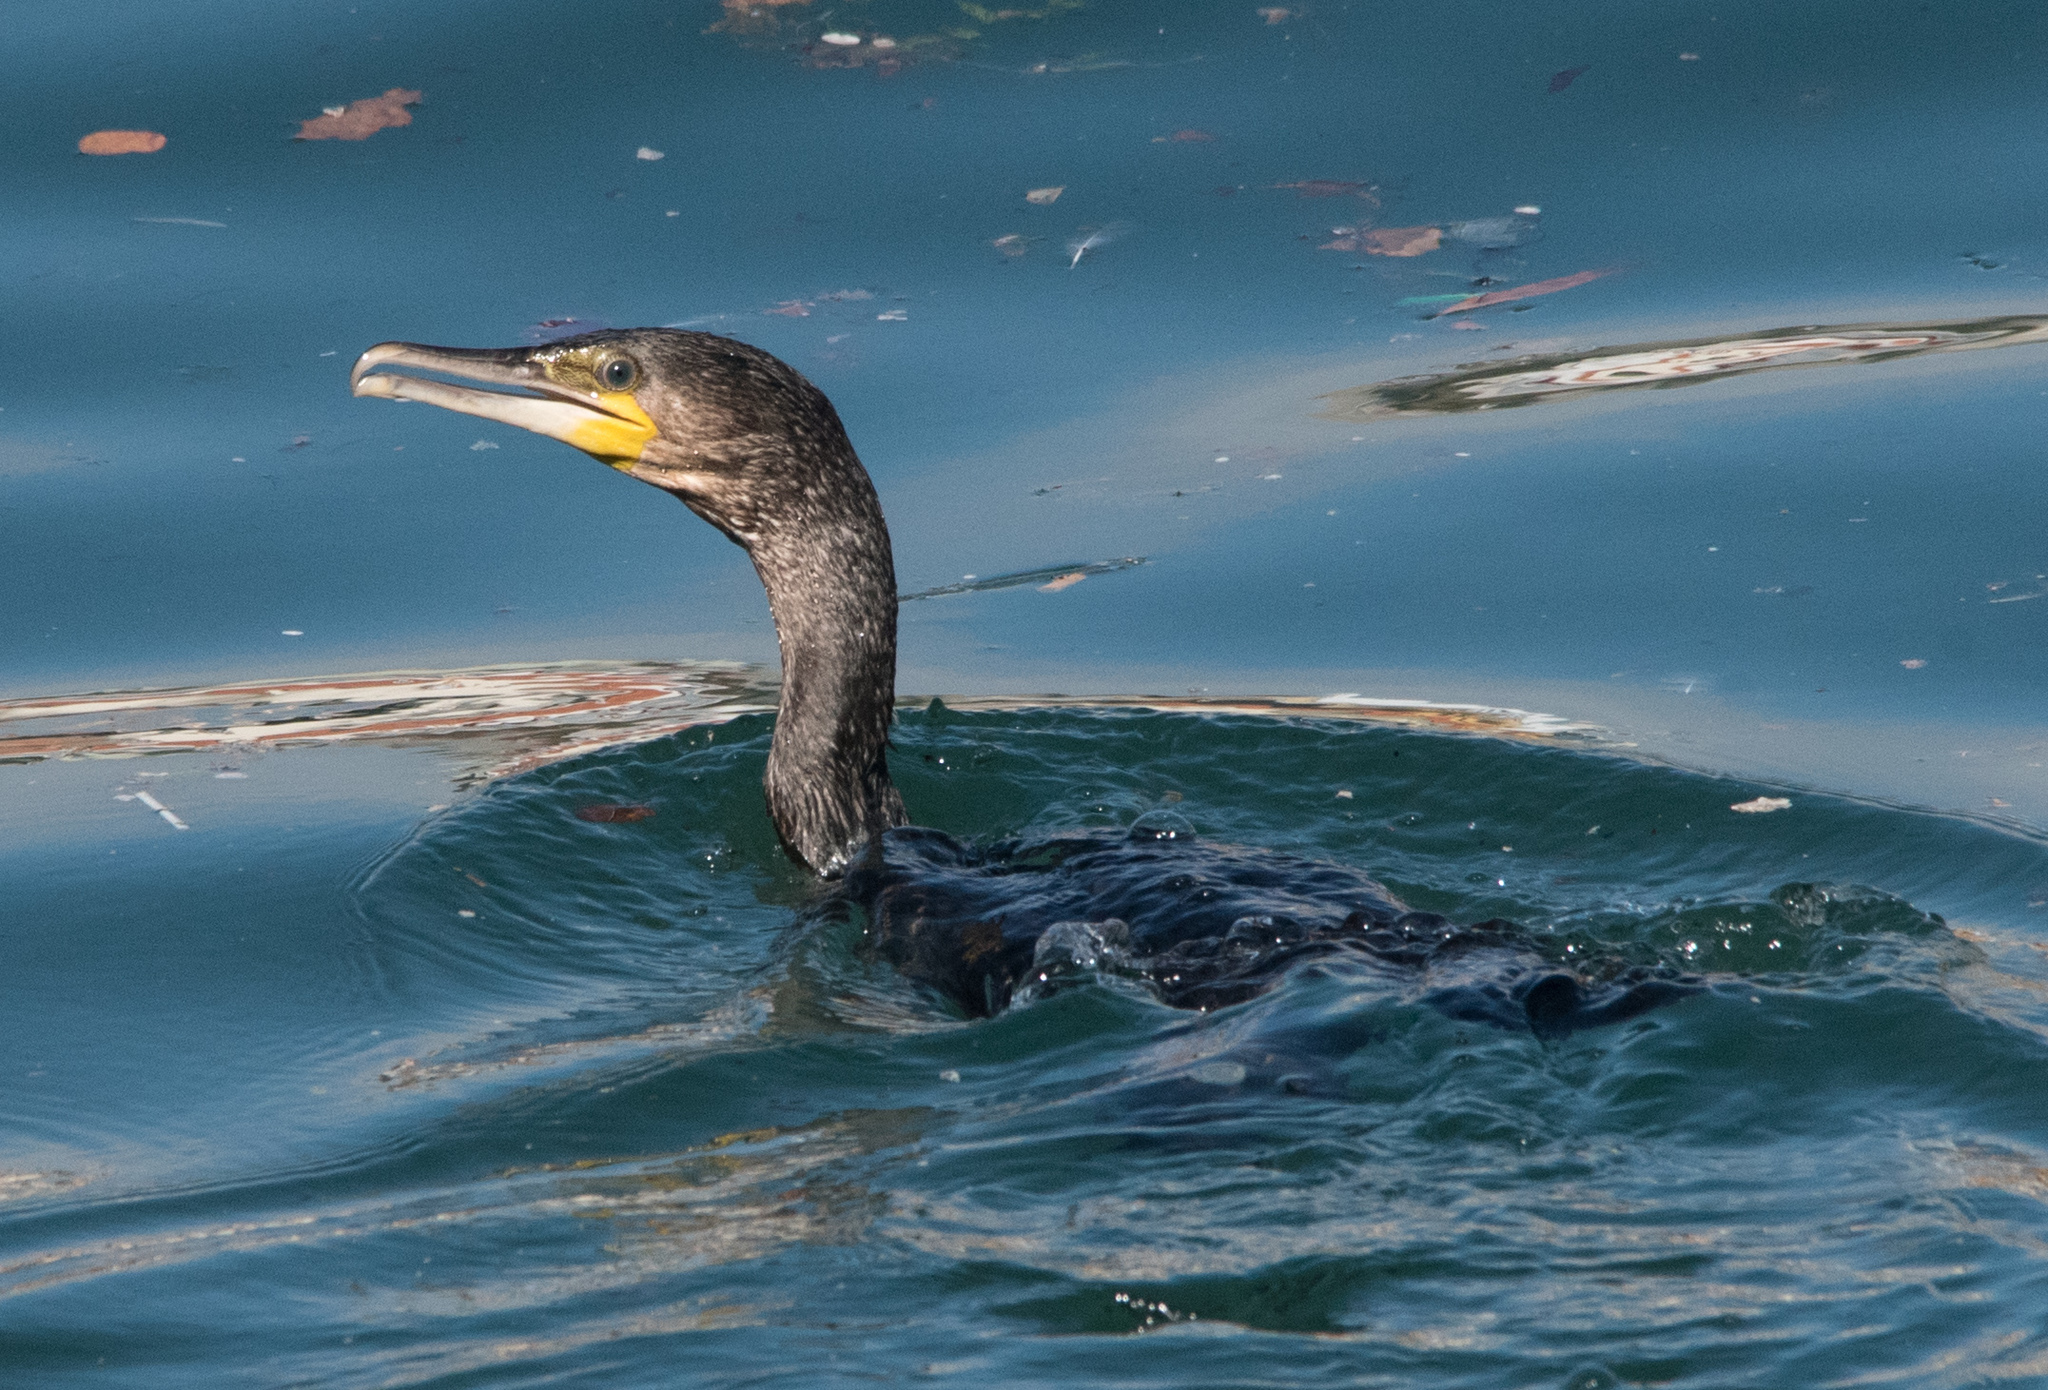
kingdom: Animalia
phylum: Chordata
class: Aves
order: Suliformes
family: Phalacrocoracidae
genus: Phalacrocorax
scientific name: Phalacrocorax carbo
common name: Great cormorant
